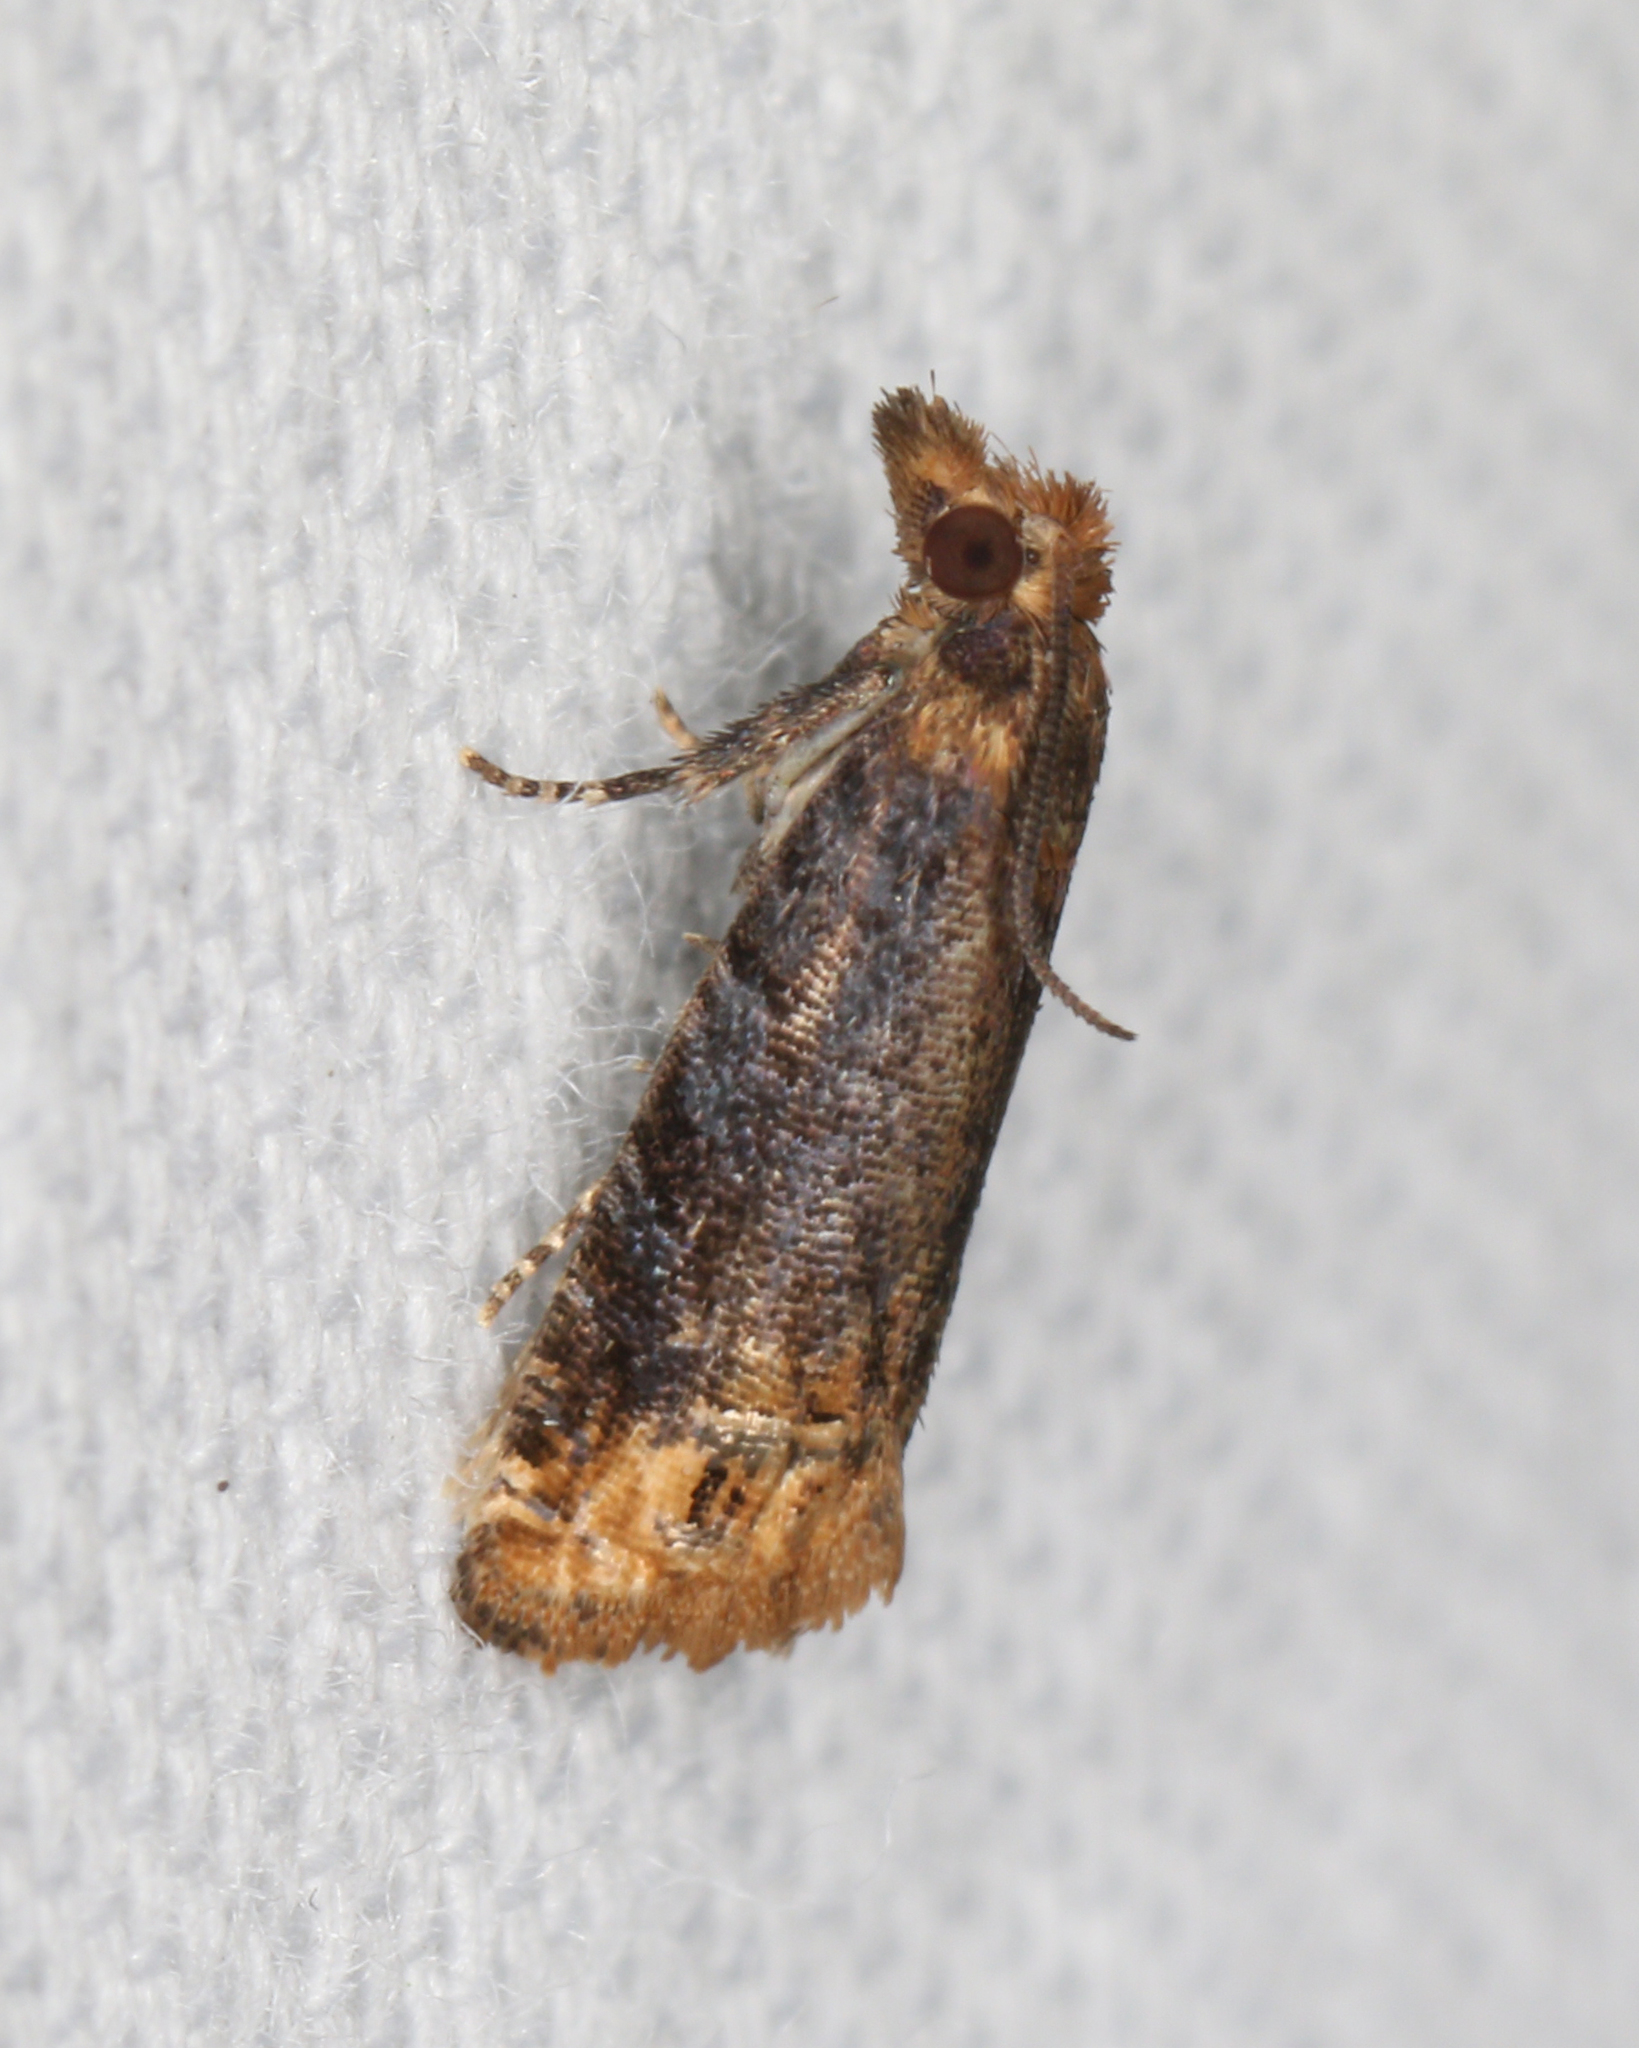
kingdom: Animalia
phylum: Arthropoda
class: Insecta
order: Lepidoptera
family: Tortricidae
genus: Eucosma
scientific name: Eucosma ochroterminana
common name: Buff-tipped eucosma moth
